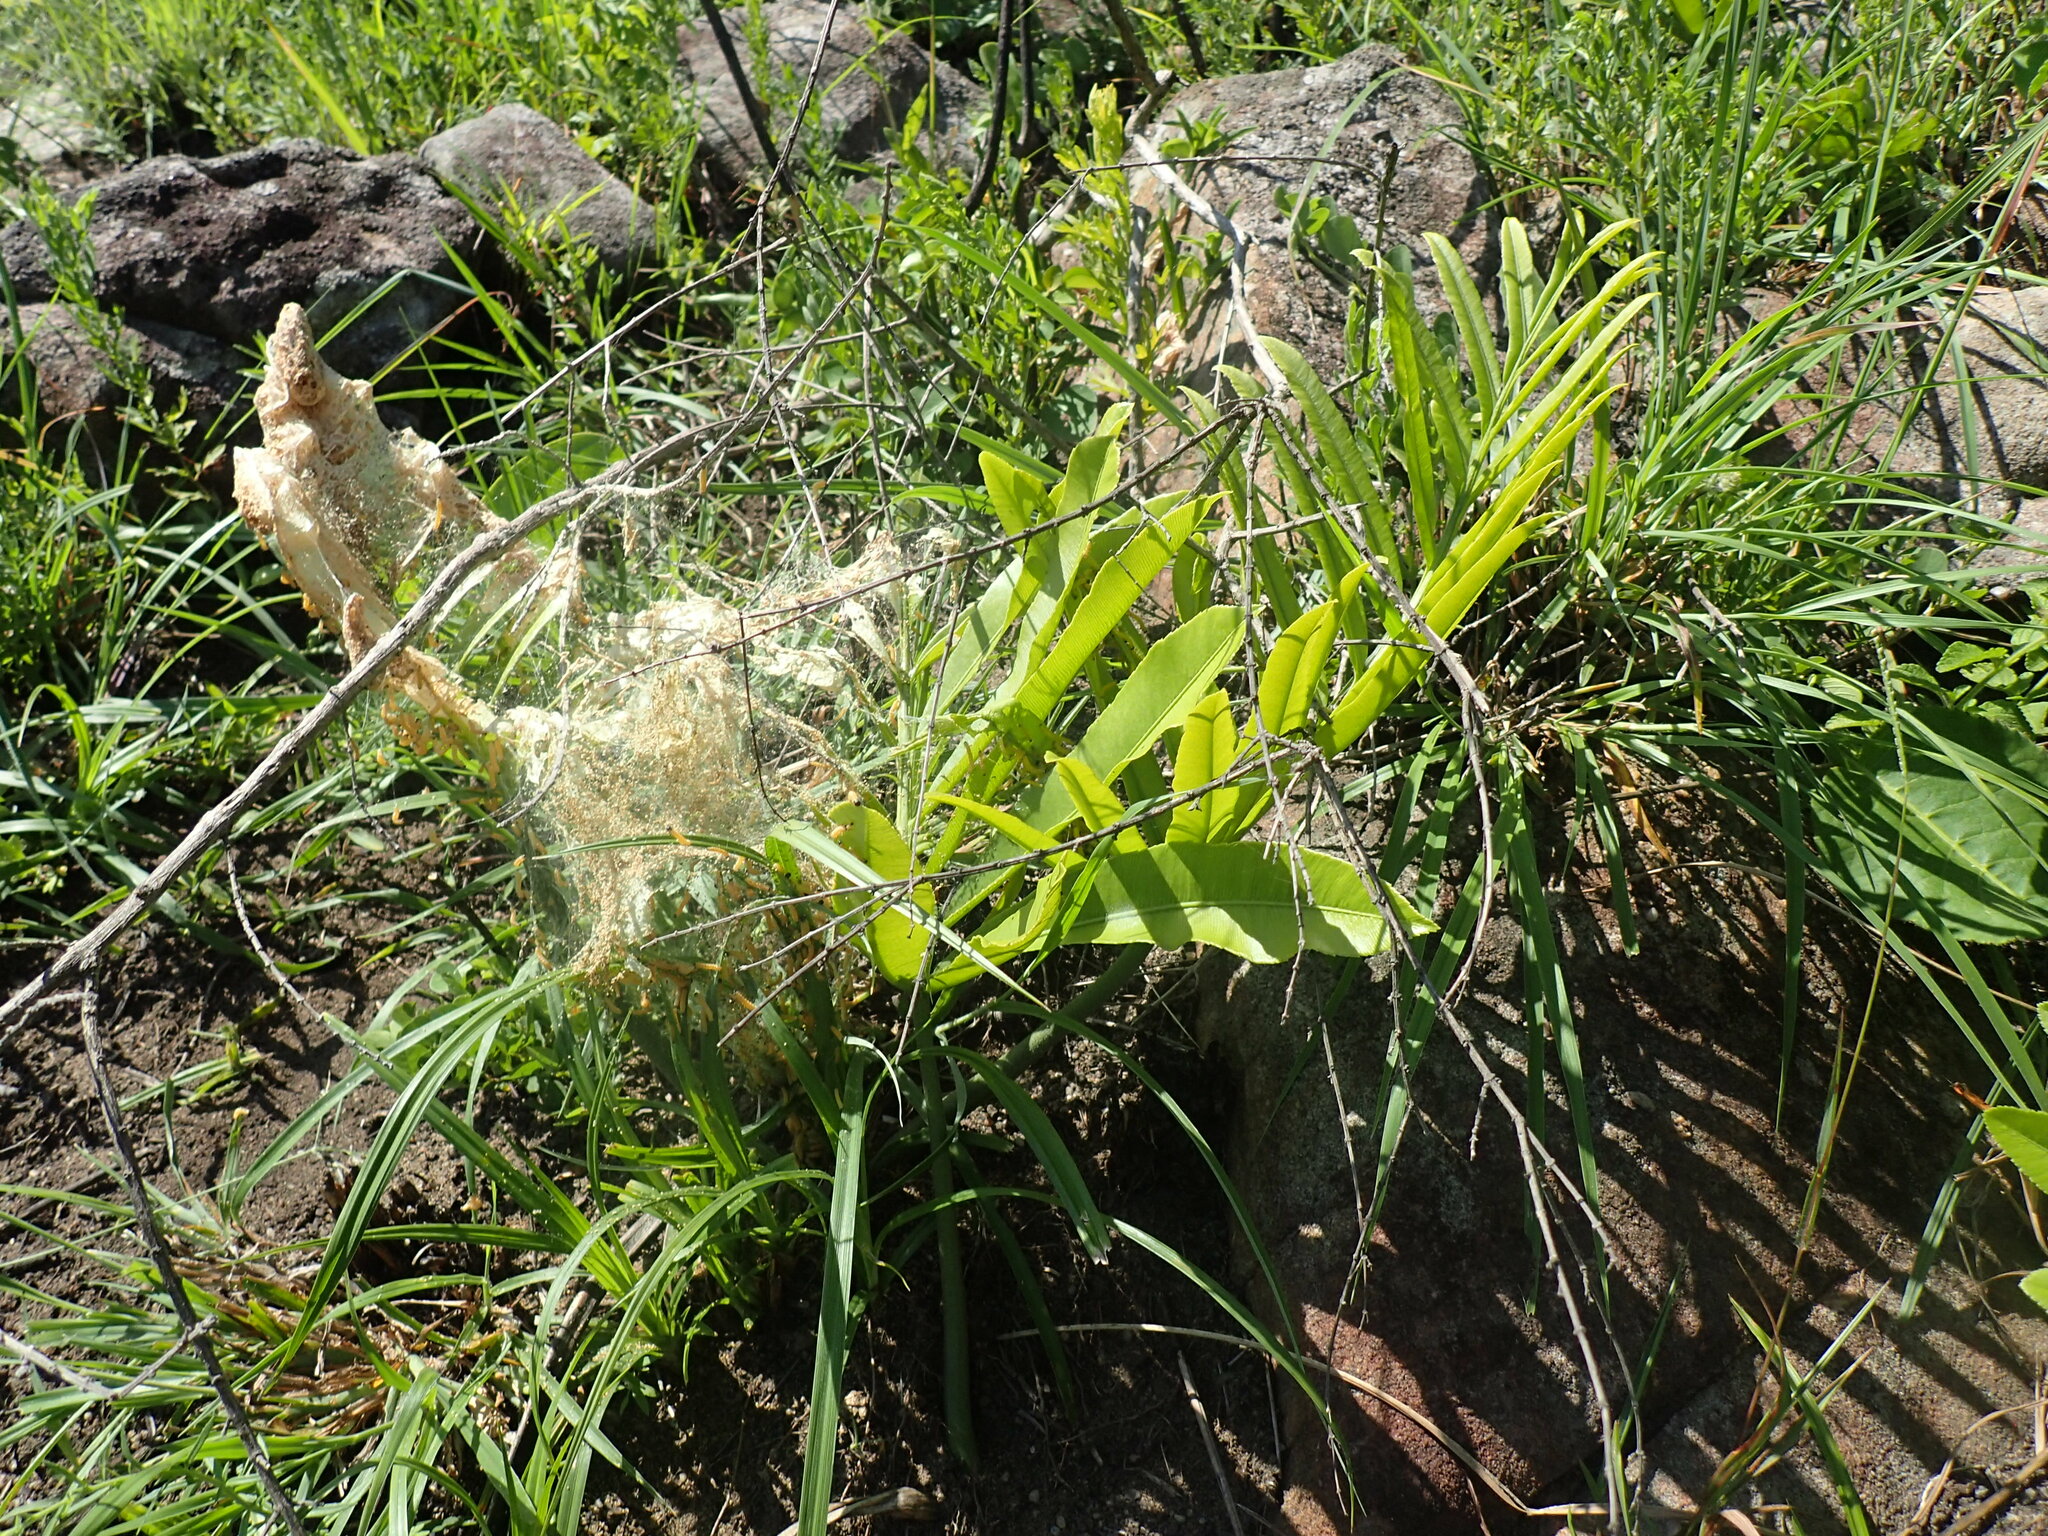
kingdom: Plantae
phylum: Tracheophyta
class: Cycadopsida
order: Cycadales
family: Zamiaceae
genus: Stangeria
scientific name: Stangeria eriopus
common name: Natal grass cycad
